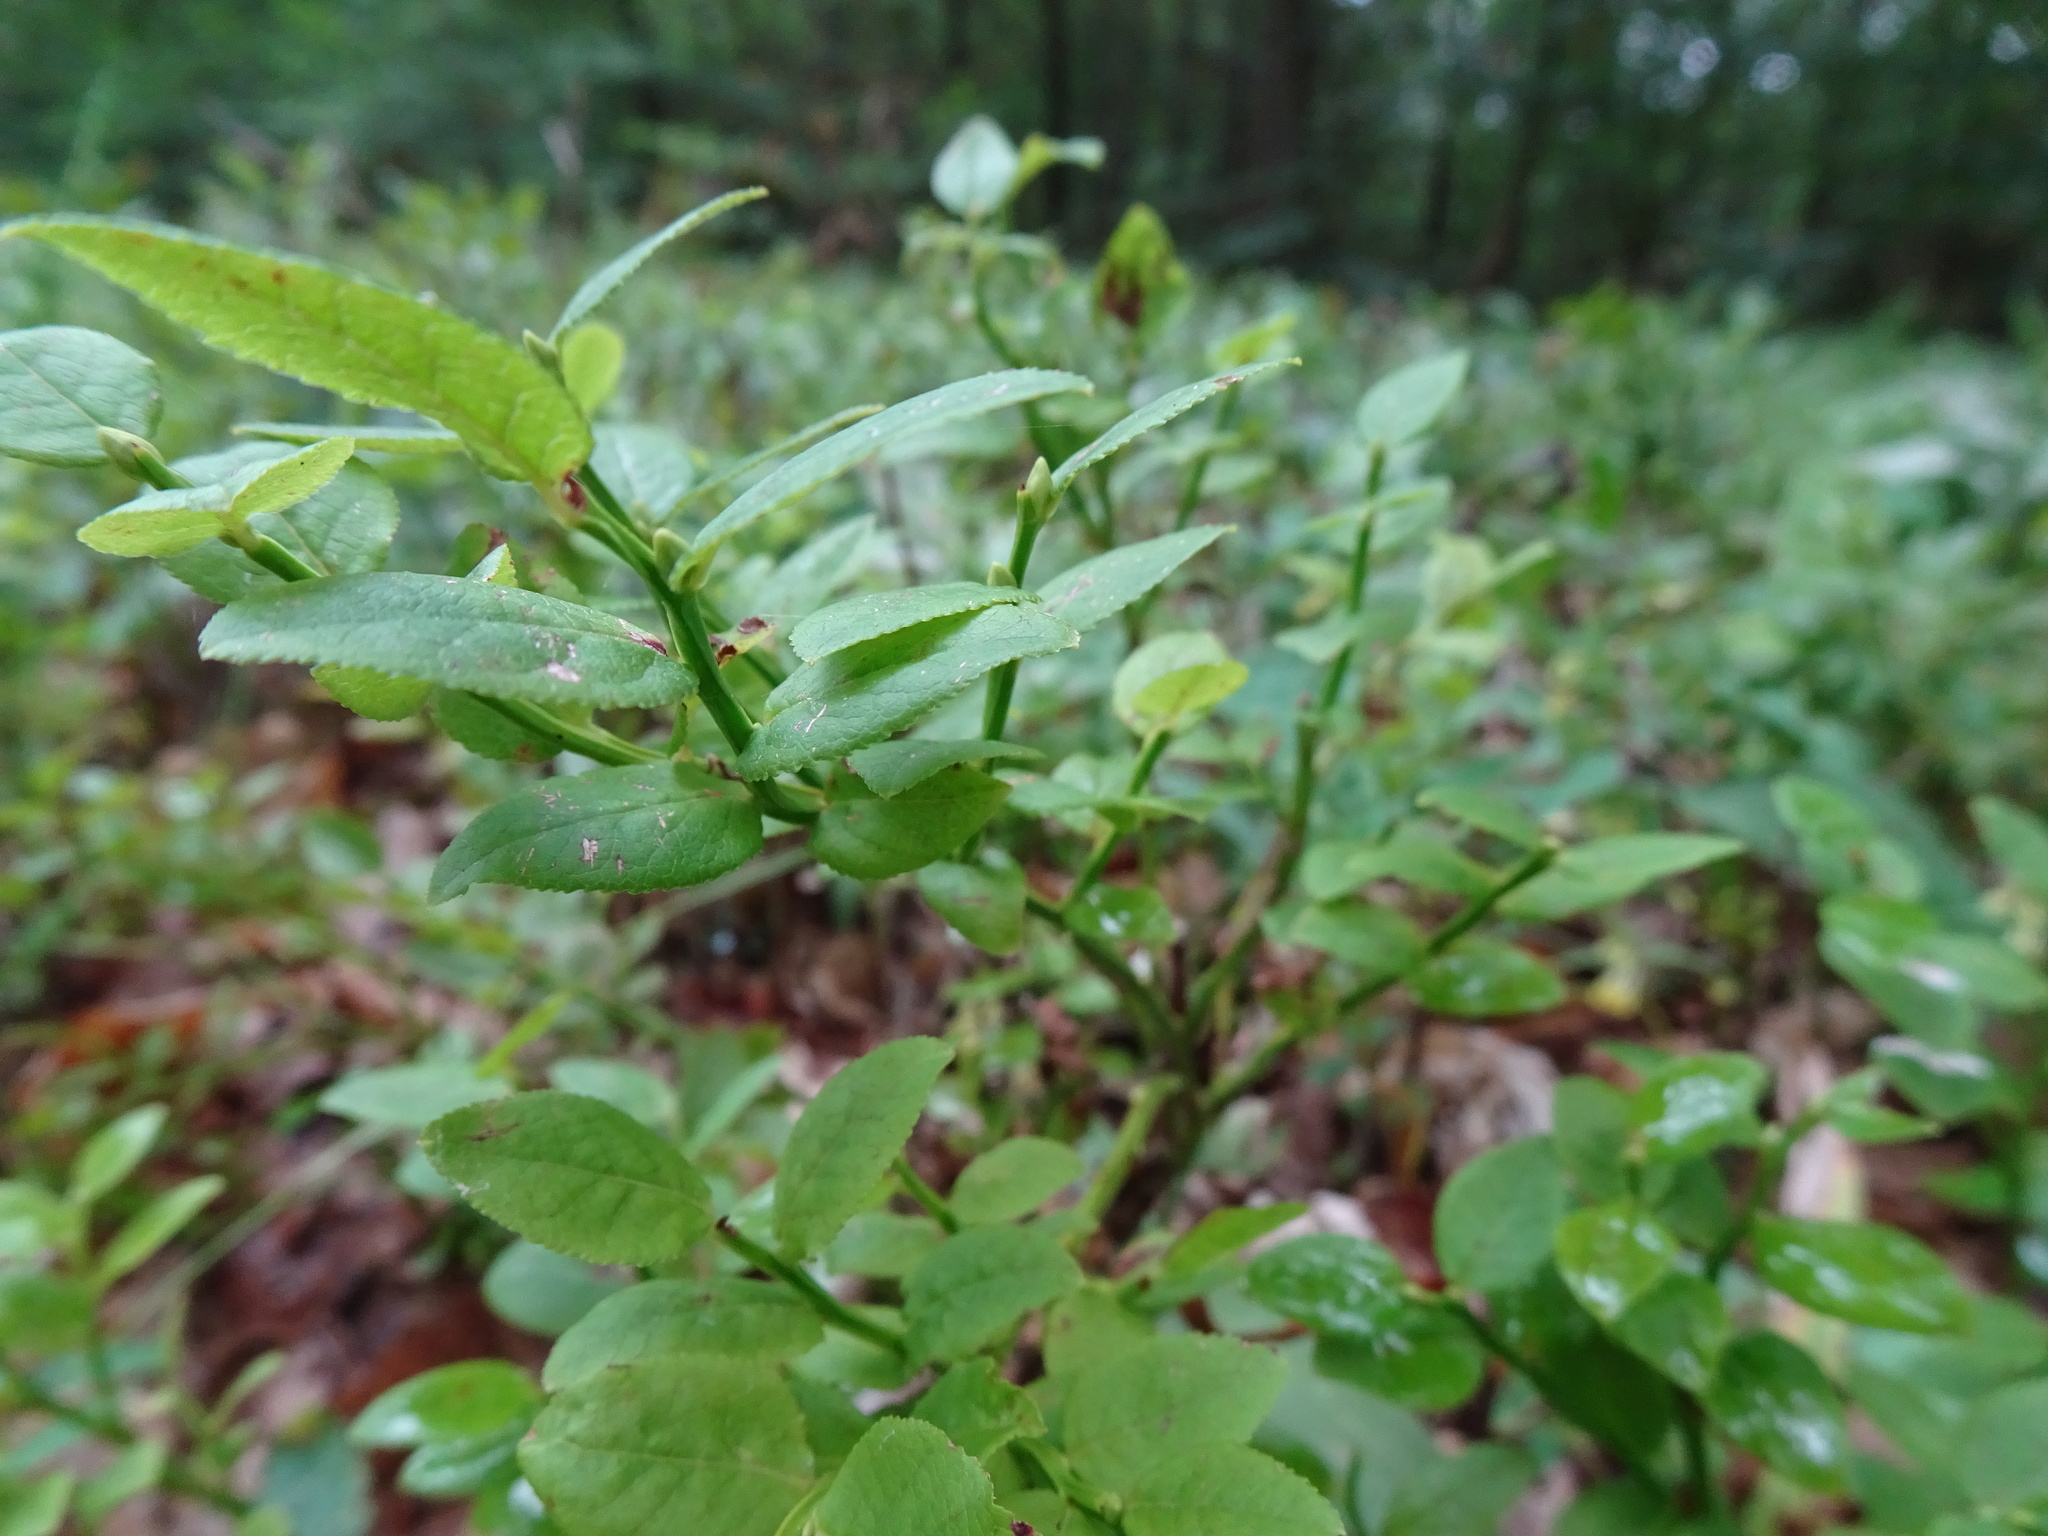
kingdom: Plantae
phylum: Tracheophyta
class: Magnoliopsida
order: Ericales
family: Ericaceae
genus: Vaccinium
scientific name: Vaccinium myrtillus
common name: Bilberry
